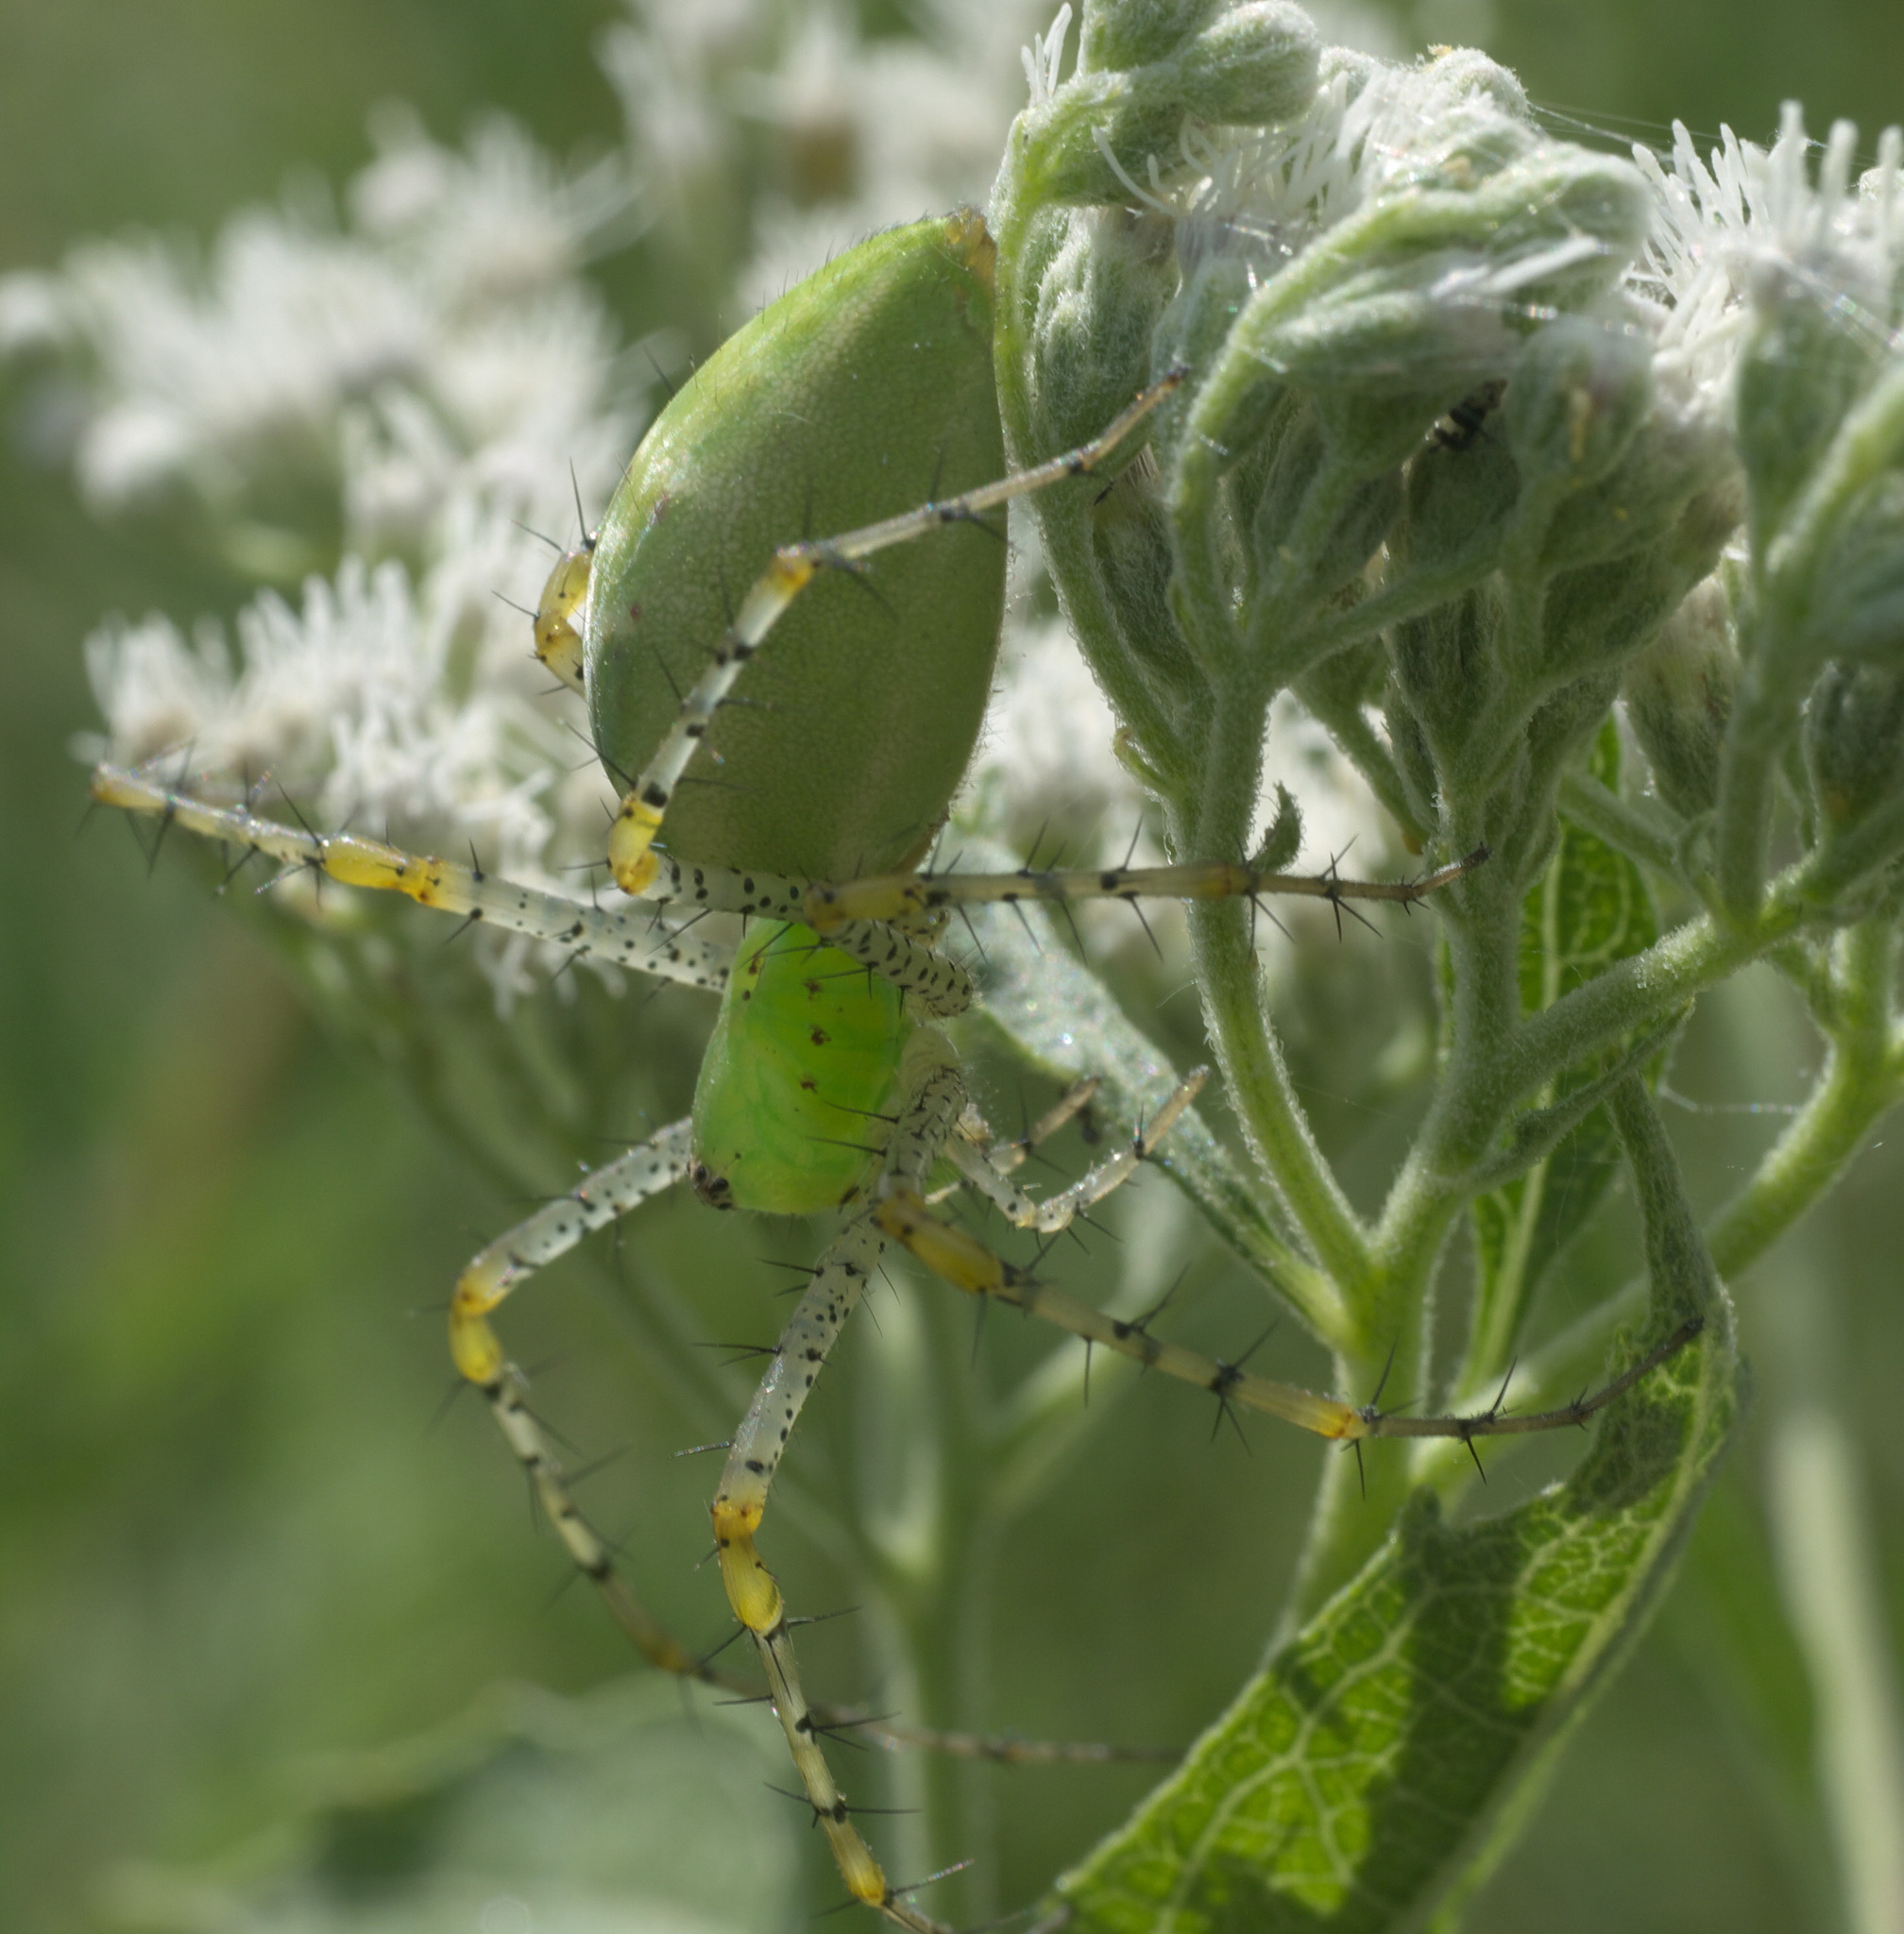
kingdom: Animalia
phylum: Arthropoda
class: Arachnida
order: Araneae
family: Oxyopidae
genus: Peucetia
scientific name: Peucetia viridans
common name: Lynx spiders
